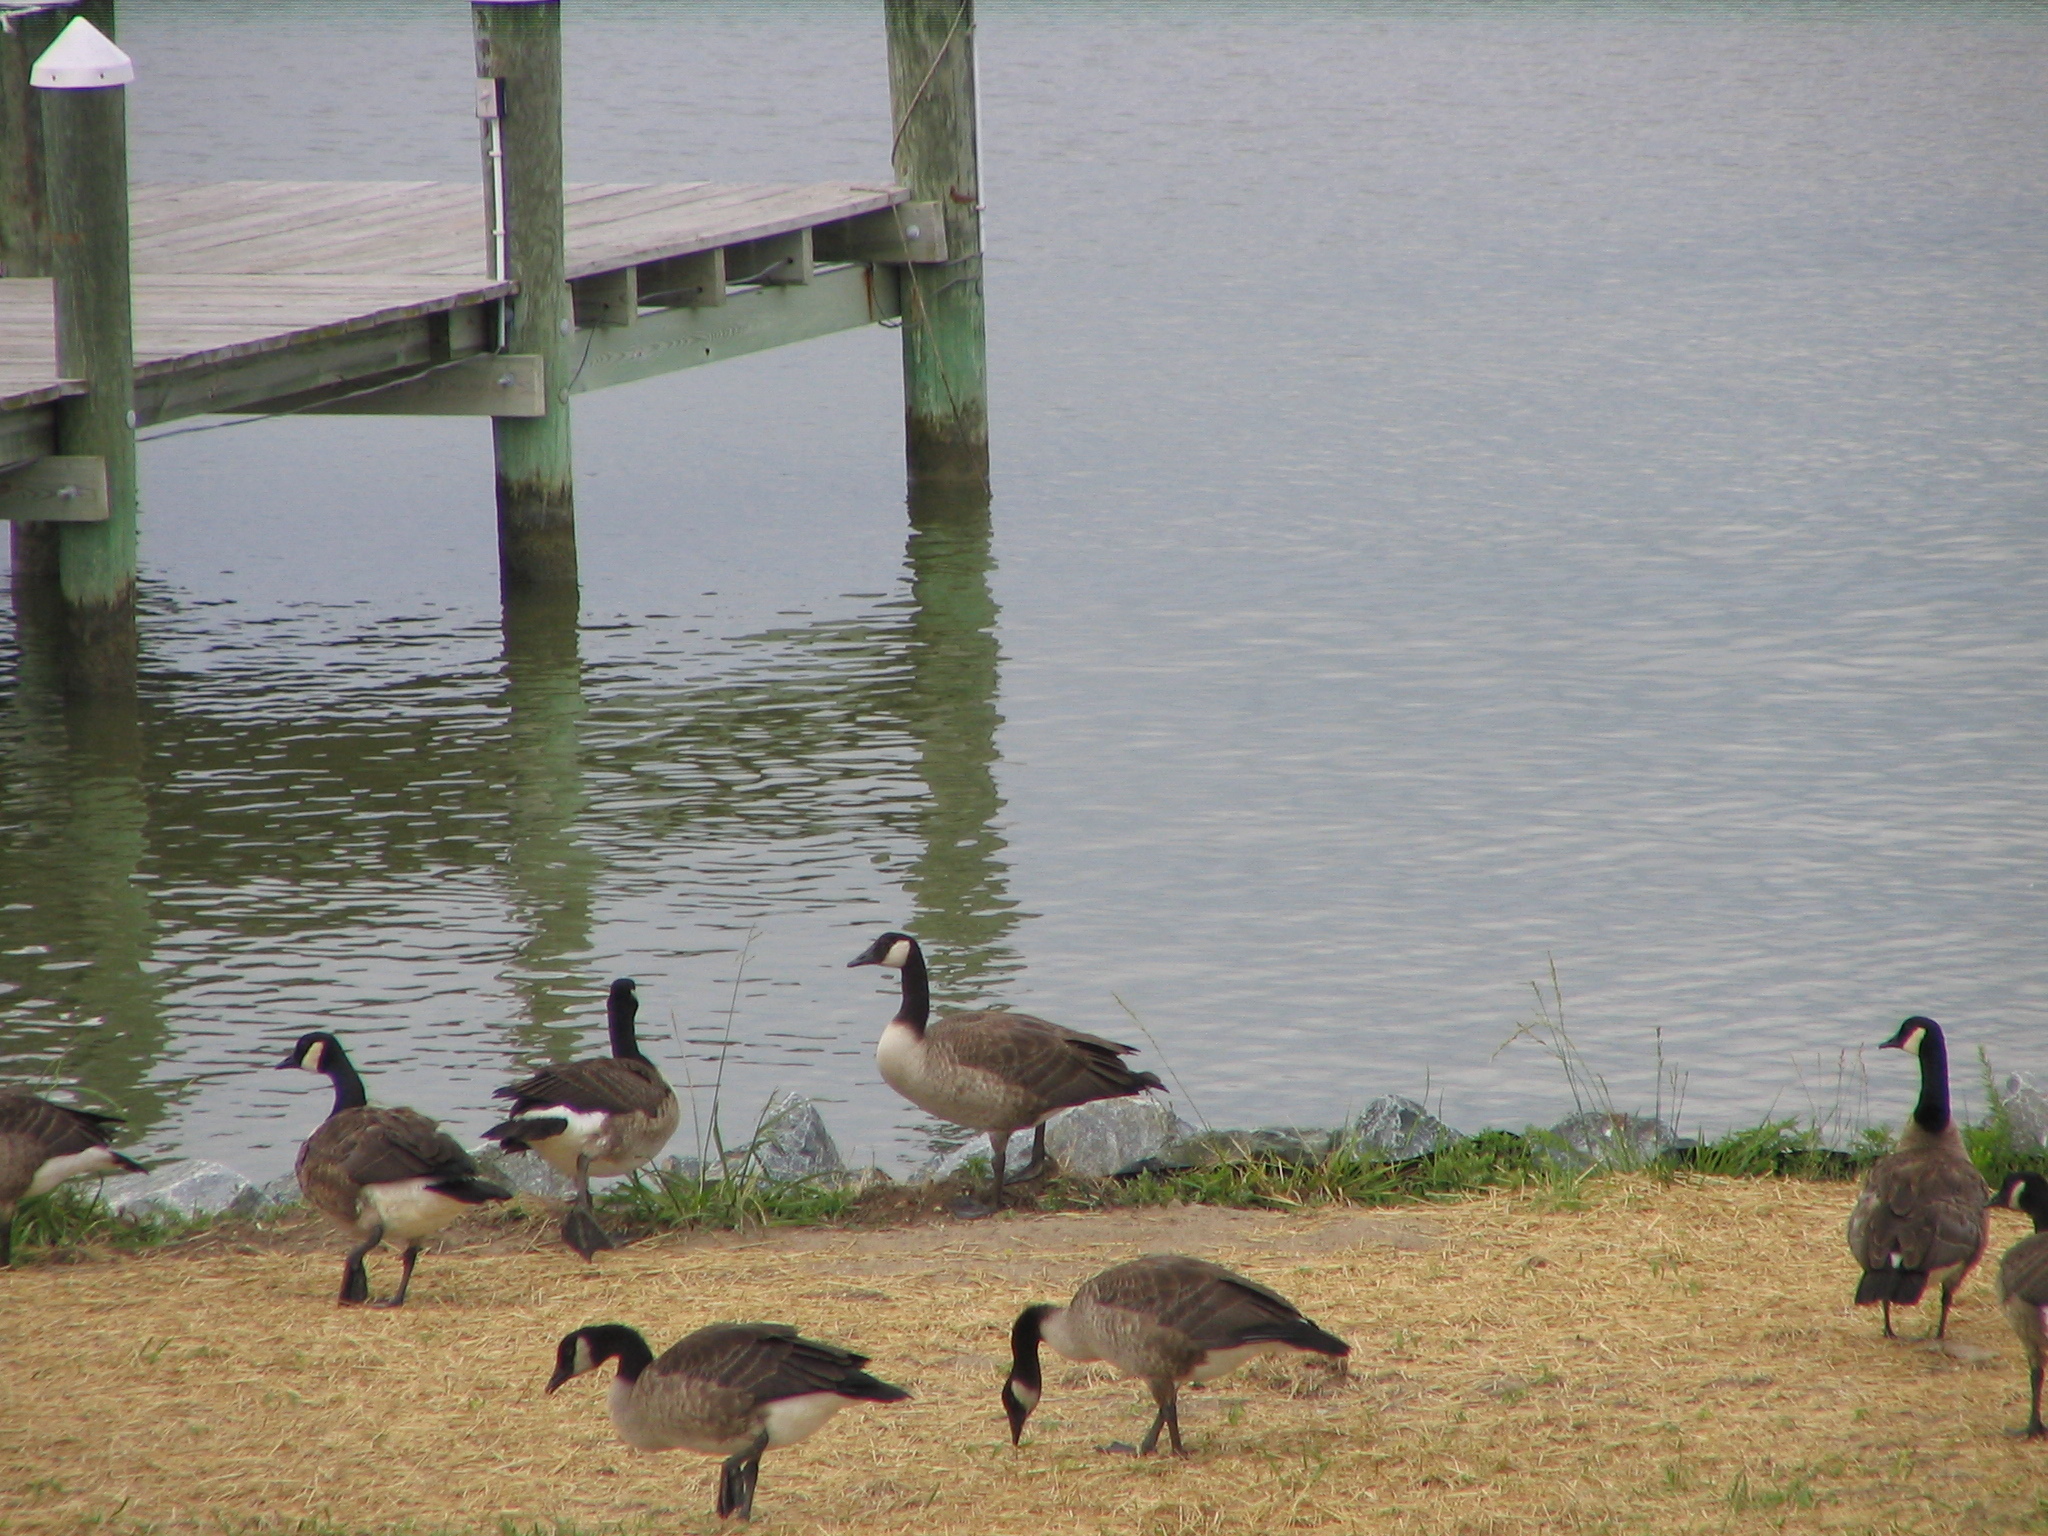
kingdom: Animalia
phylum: Chordata
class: Aves
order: Anseriformes
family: Anatidae
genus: Branta
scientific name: Branta canadensis
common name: Canada goose
